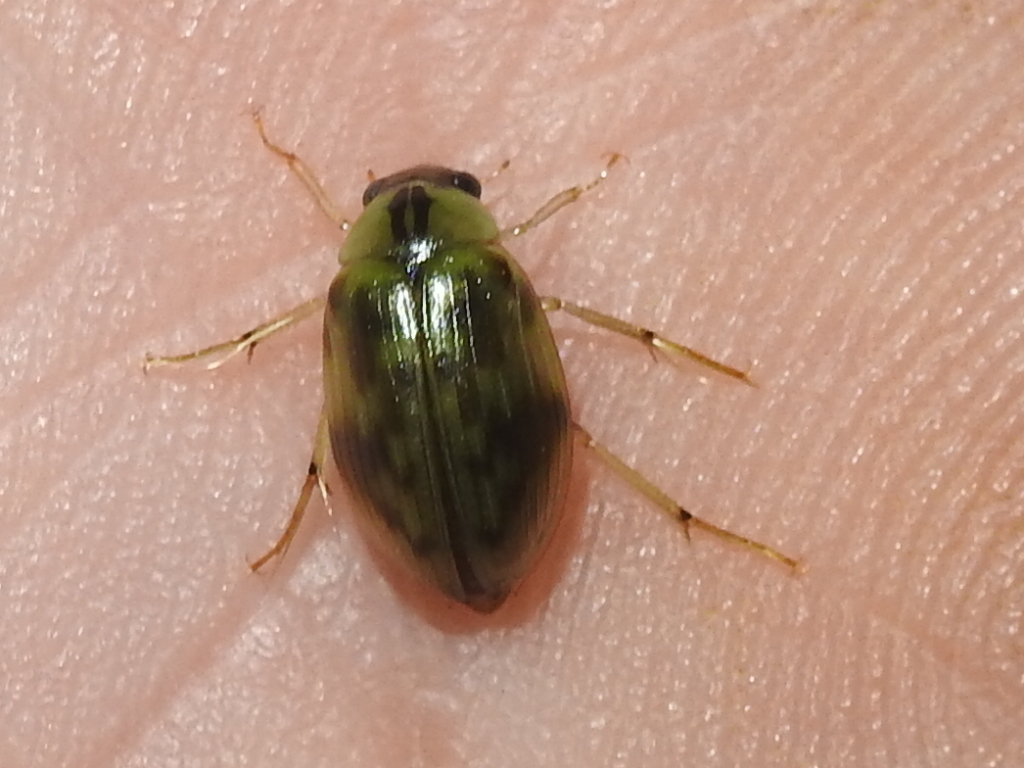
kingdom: Animalia
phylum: Arthropoda
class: Insecta
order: Coleoptera
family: Hydrophilidae
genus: Berosus
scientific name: Berosus miles
